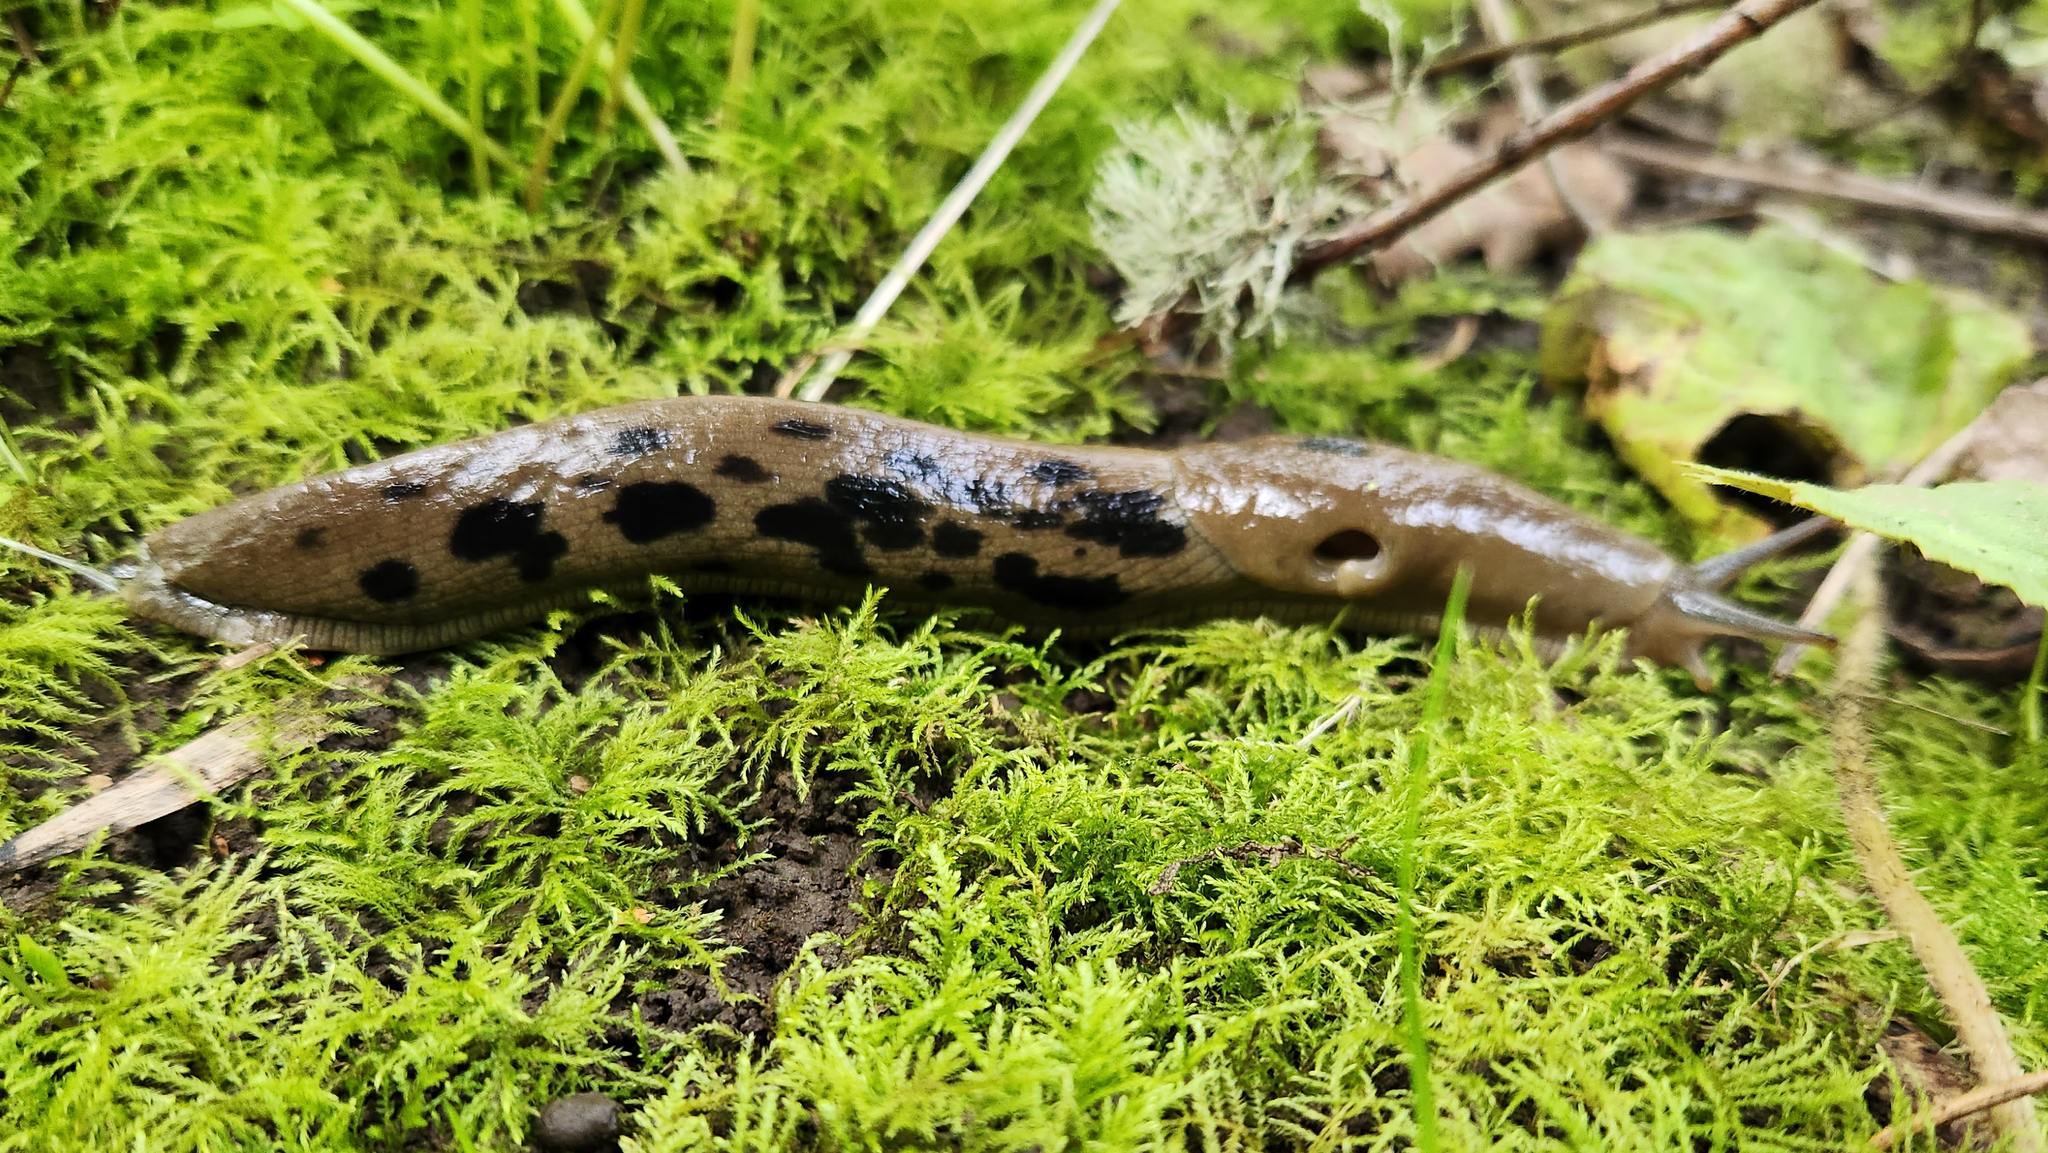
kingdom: Animalia
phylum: Mollusca
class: Gastropoda
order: Stylommatophora
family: Ariolimacidae
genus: Ariolimax
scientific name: Ariolimax columbianus
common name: Pacific banana slug
